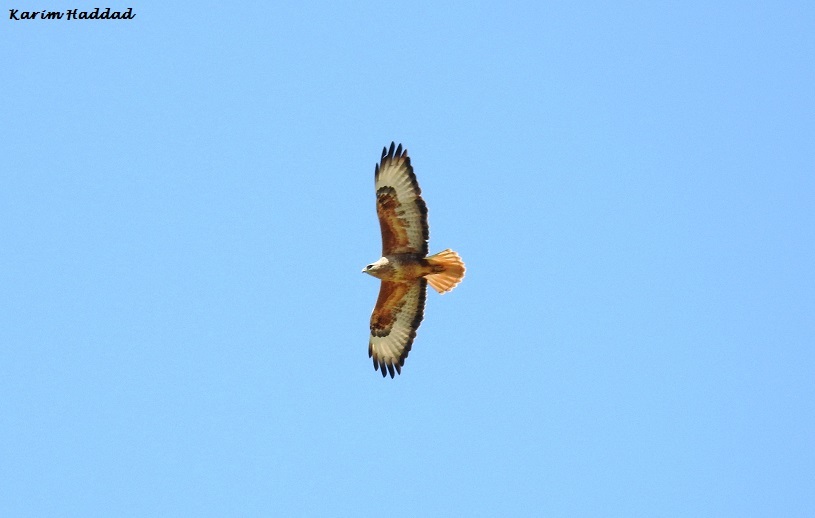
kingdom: Animalia
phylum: Chordata
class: Aves
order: Accipitriformes
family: Accipitridae
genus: Buteo
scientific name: Buteo rufinus
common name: Long-legged buzzard
